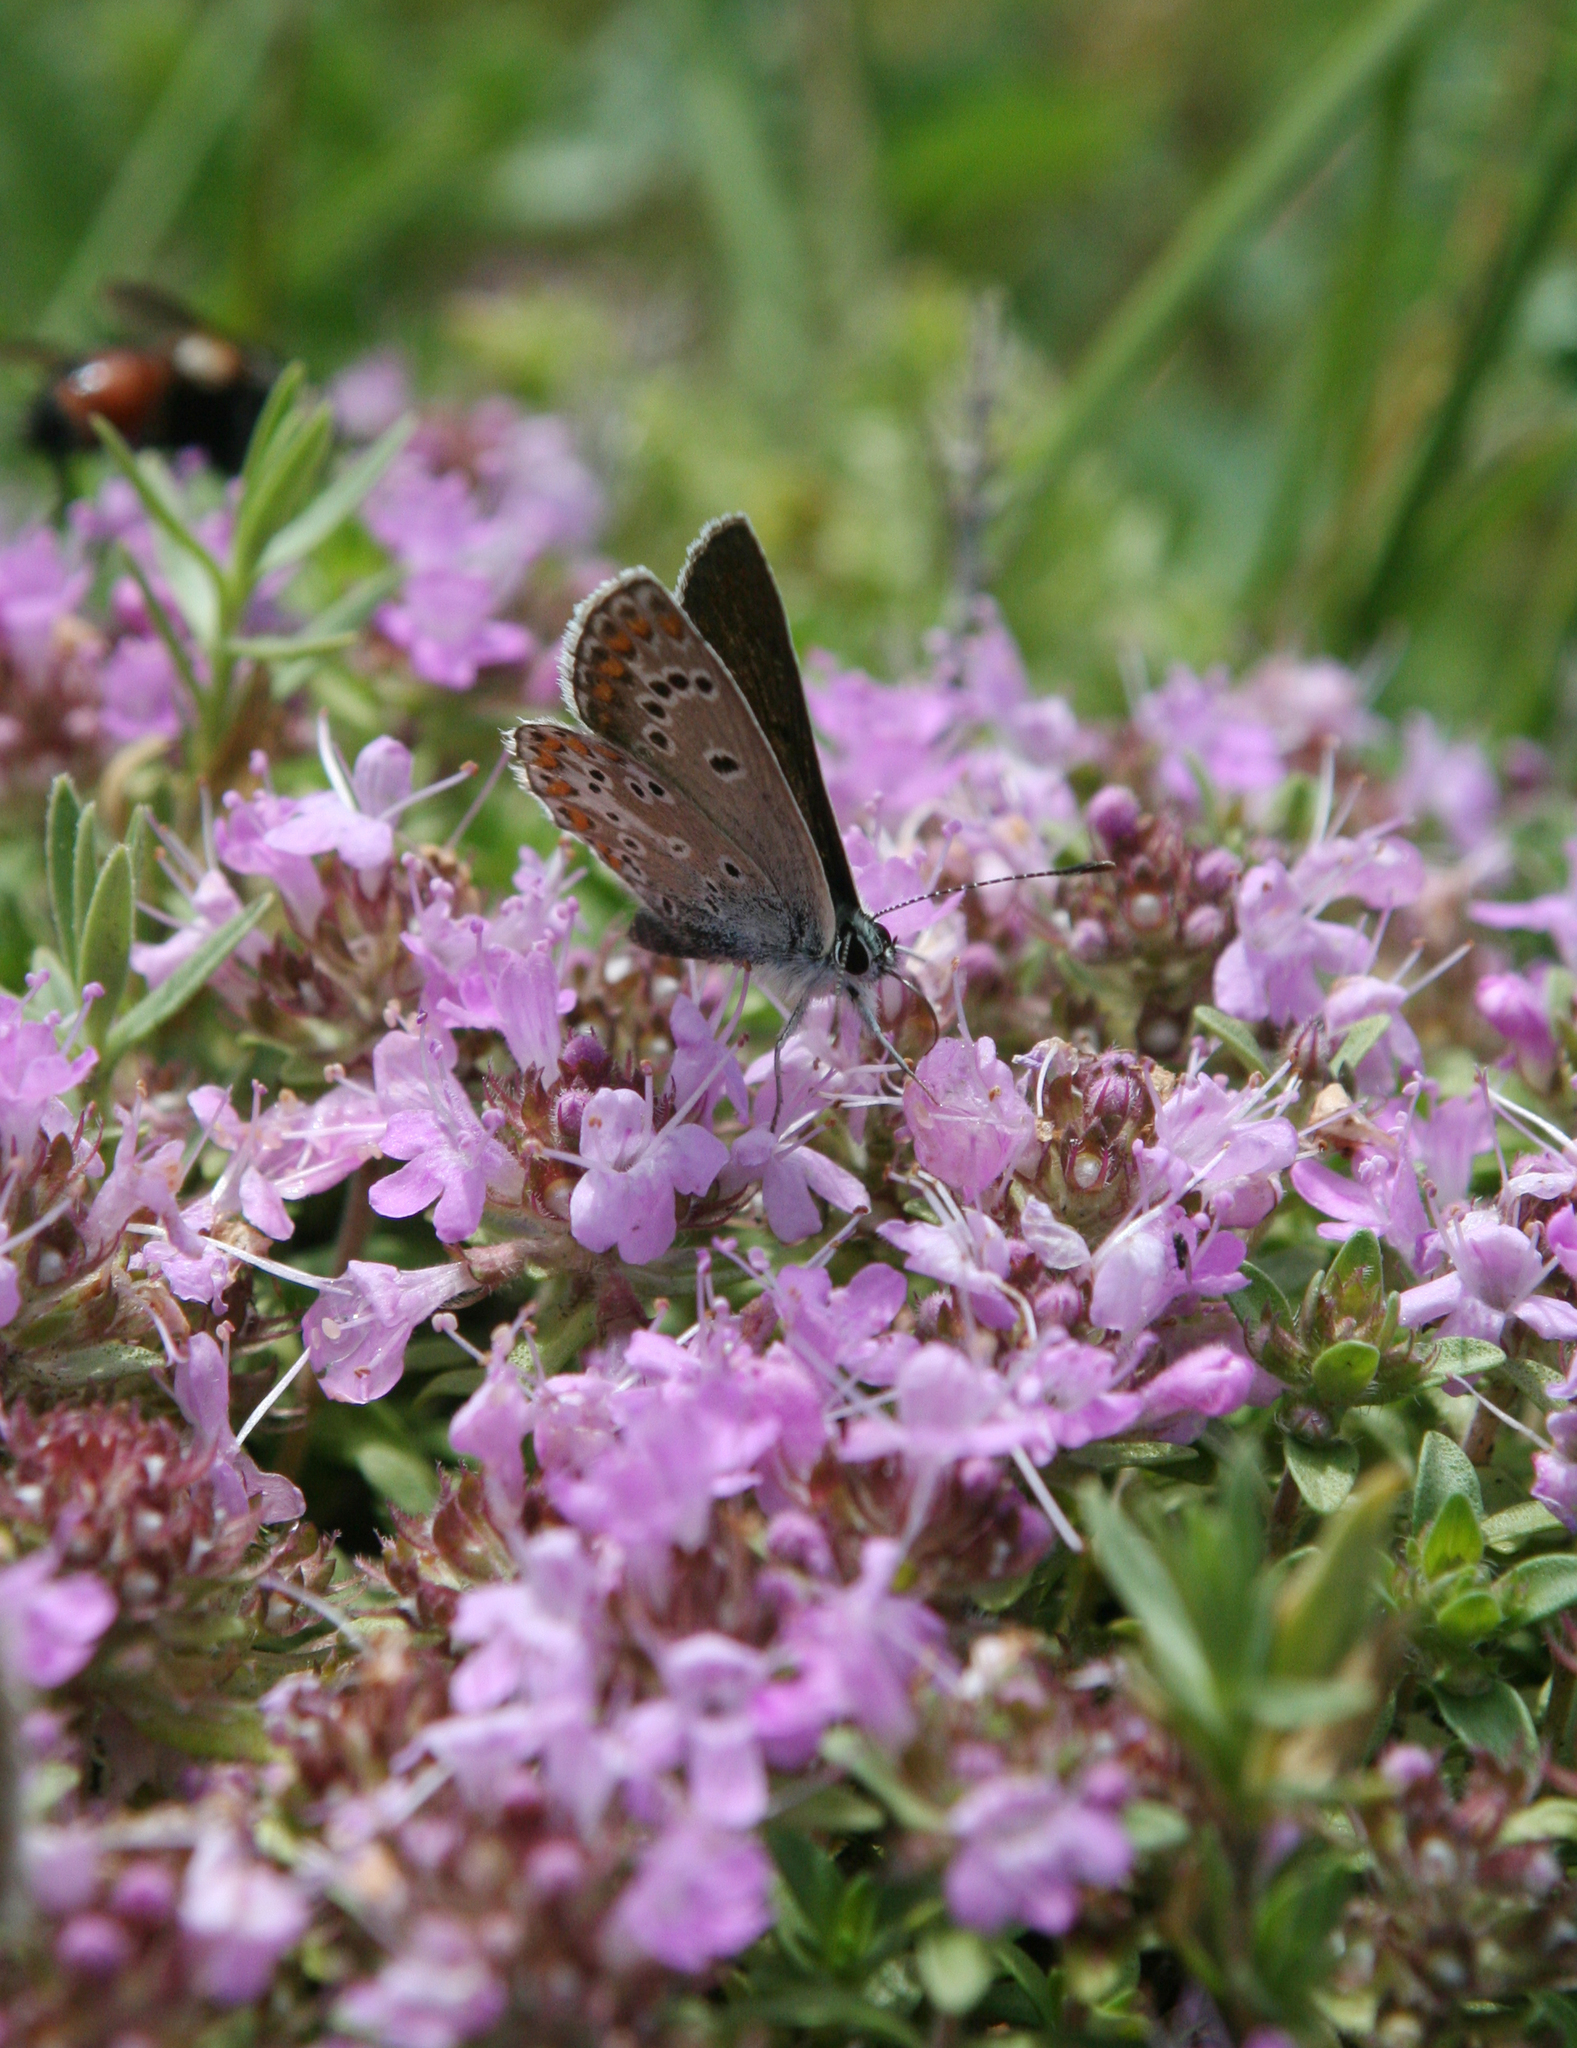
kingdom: Animalia
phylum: Arthropoda
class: Insecta
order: Lepidoptera
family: Lycaenidae
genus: Aricia
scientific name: Aricia artaxerxes
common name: Northern brown argus
